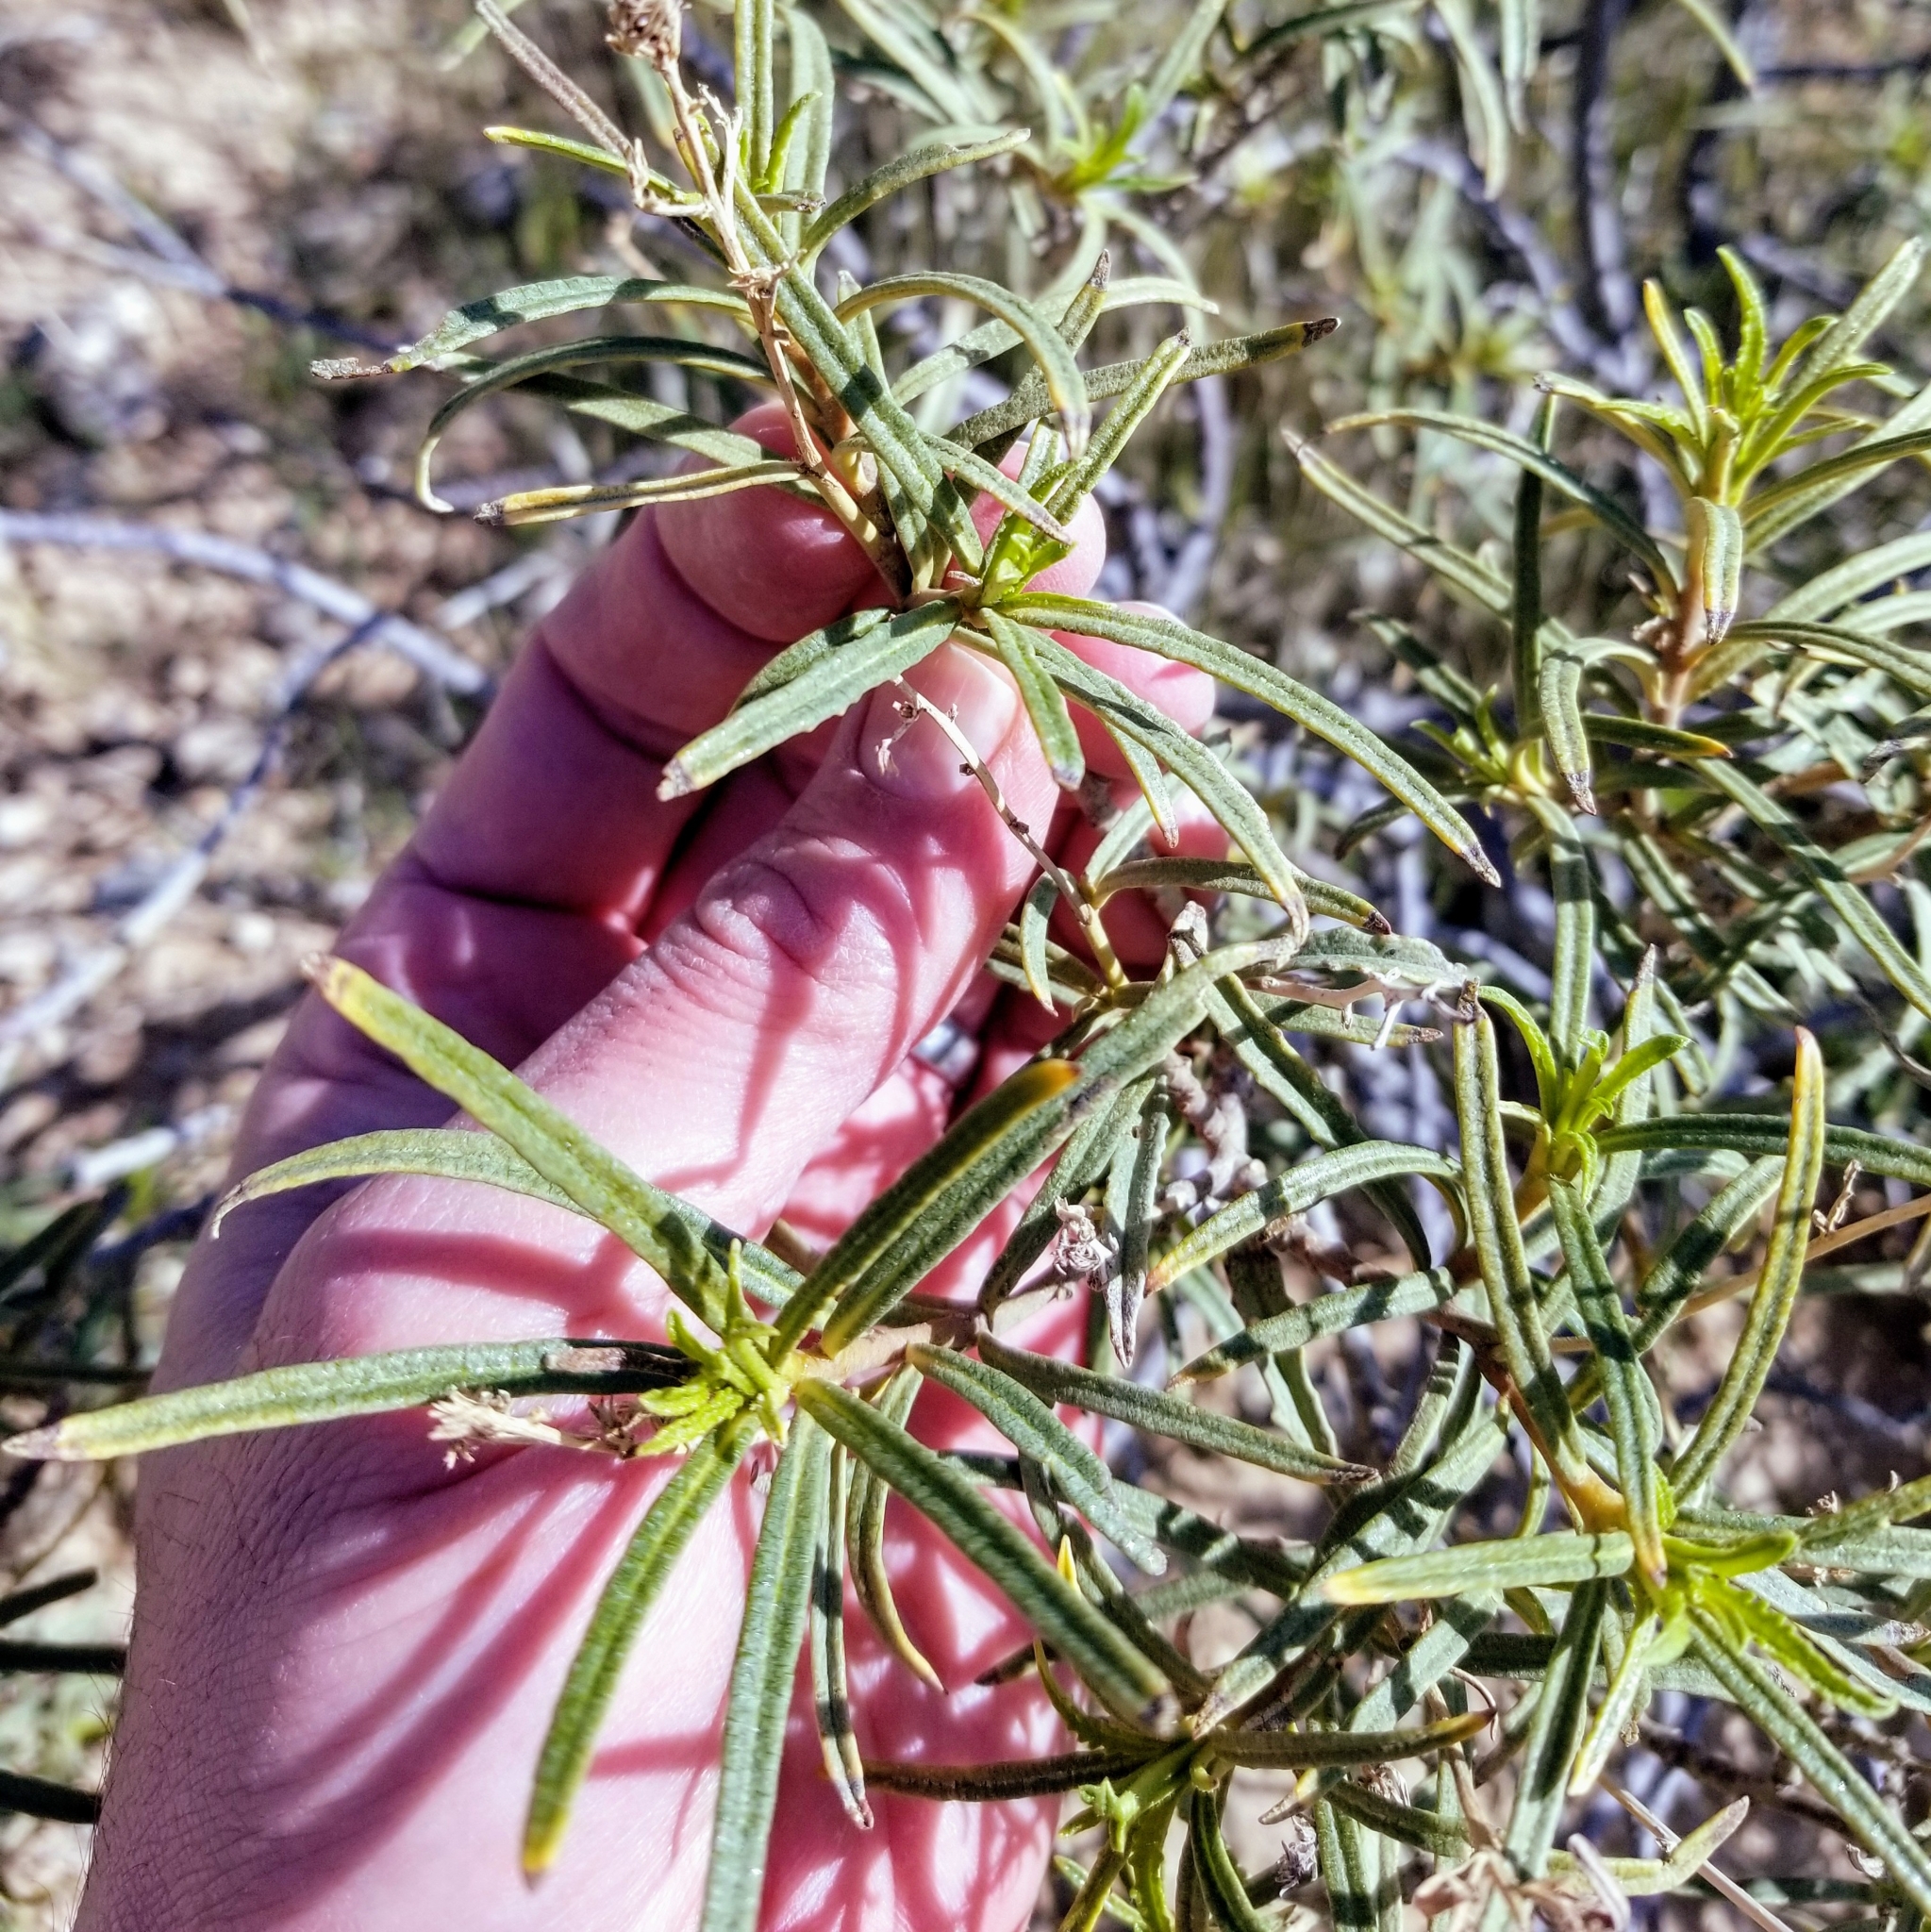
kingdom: Plantae
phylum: Tracheophyta
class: Magnoliopsida
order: Boraginales
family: Namaceae
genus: Eriodictyon
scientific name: Eriodictyon angustifolium
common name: Narrow-leaf yerba santa
